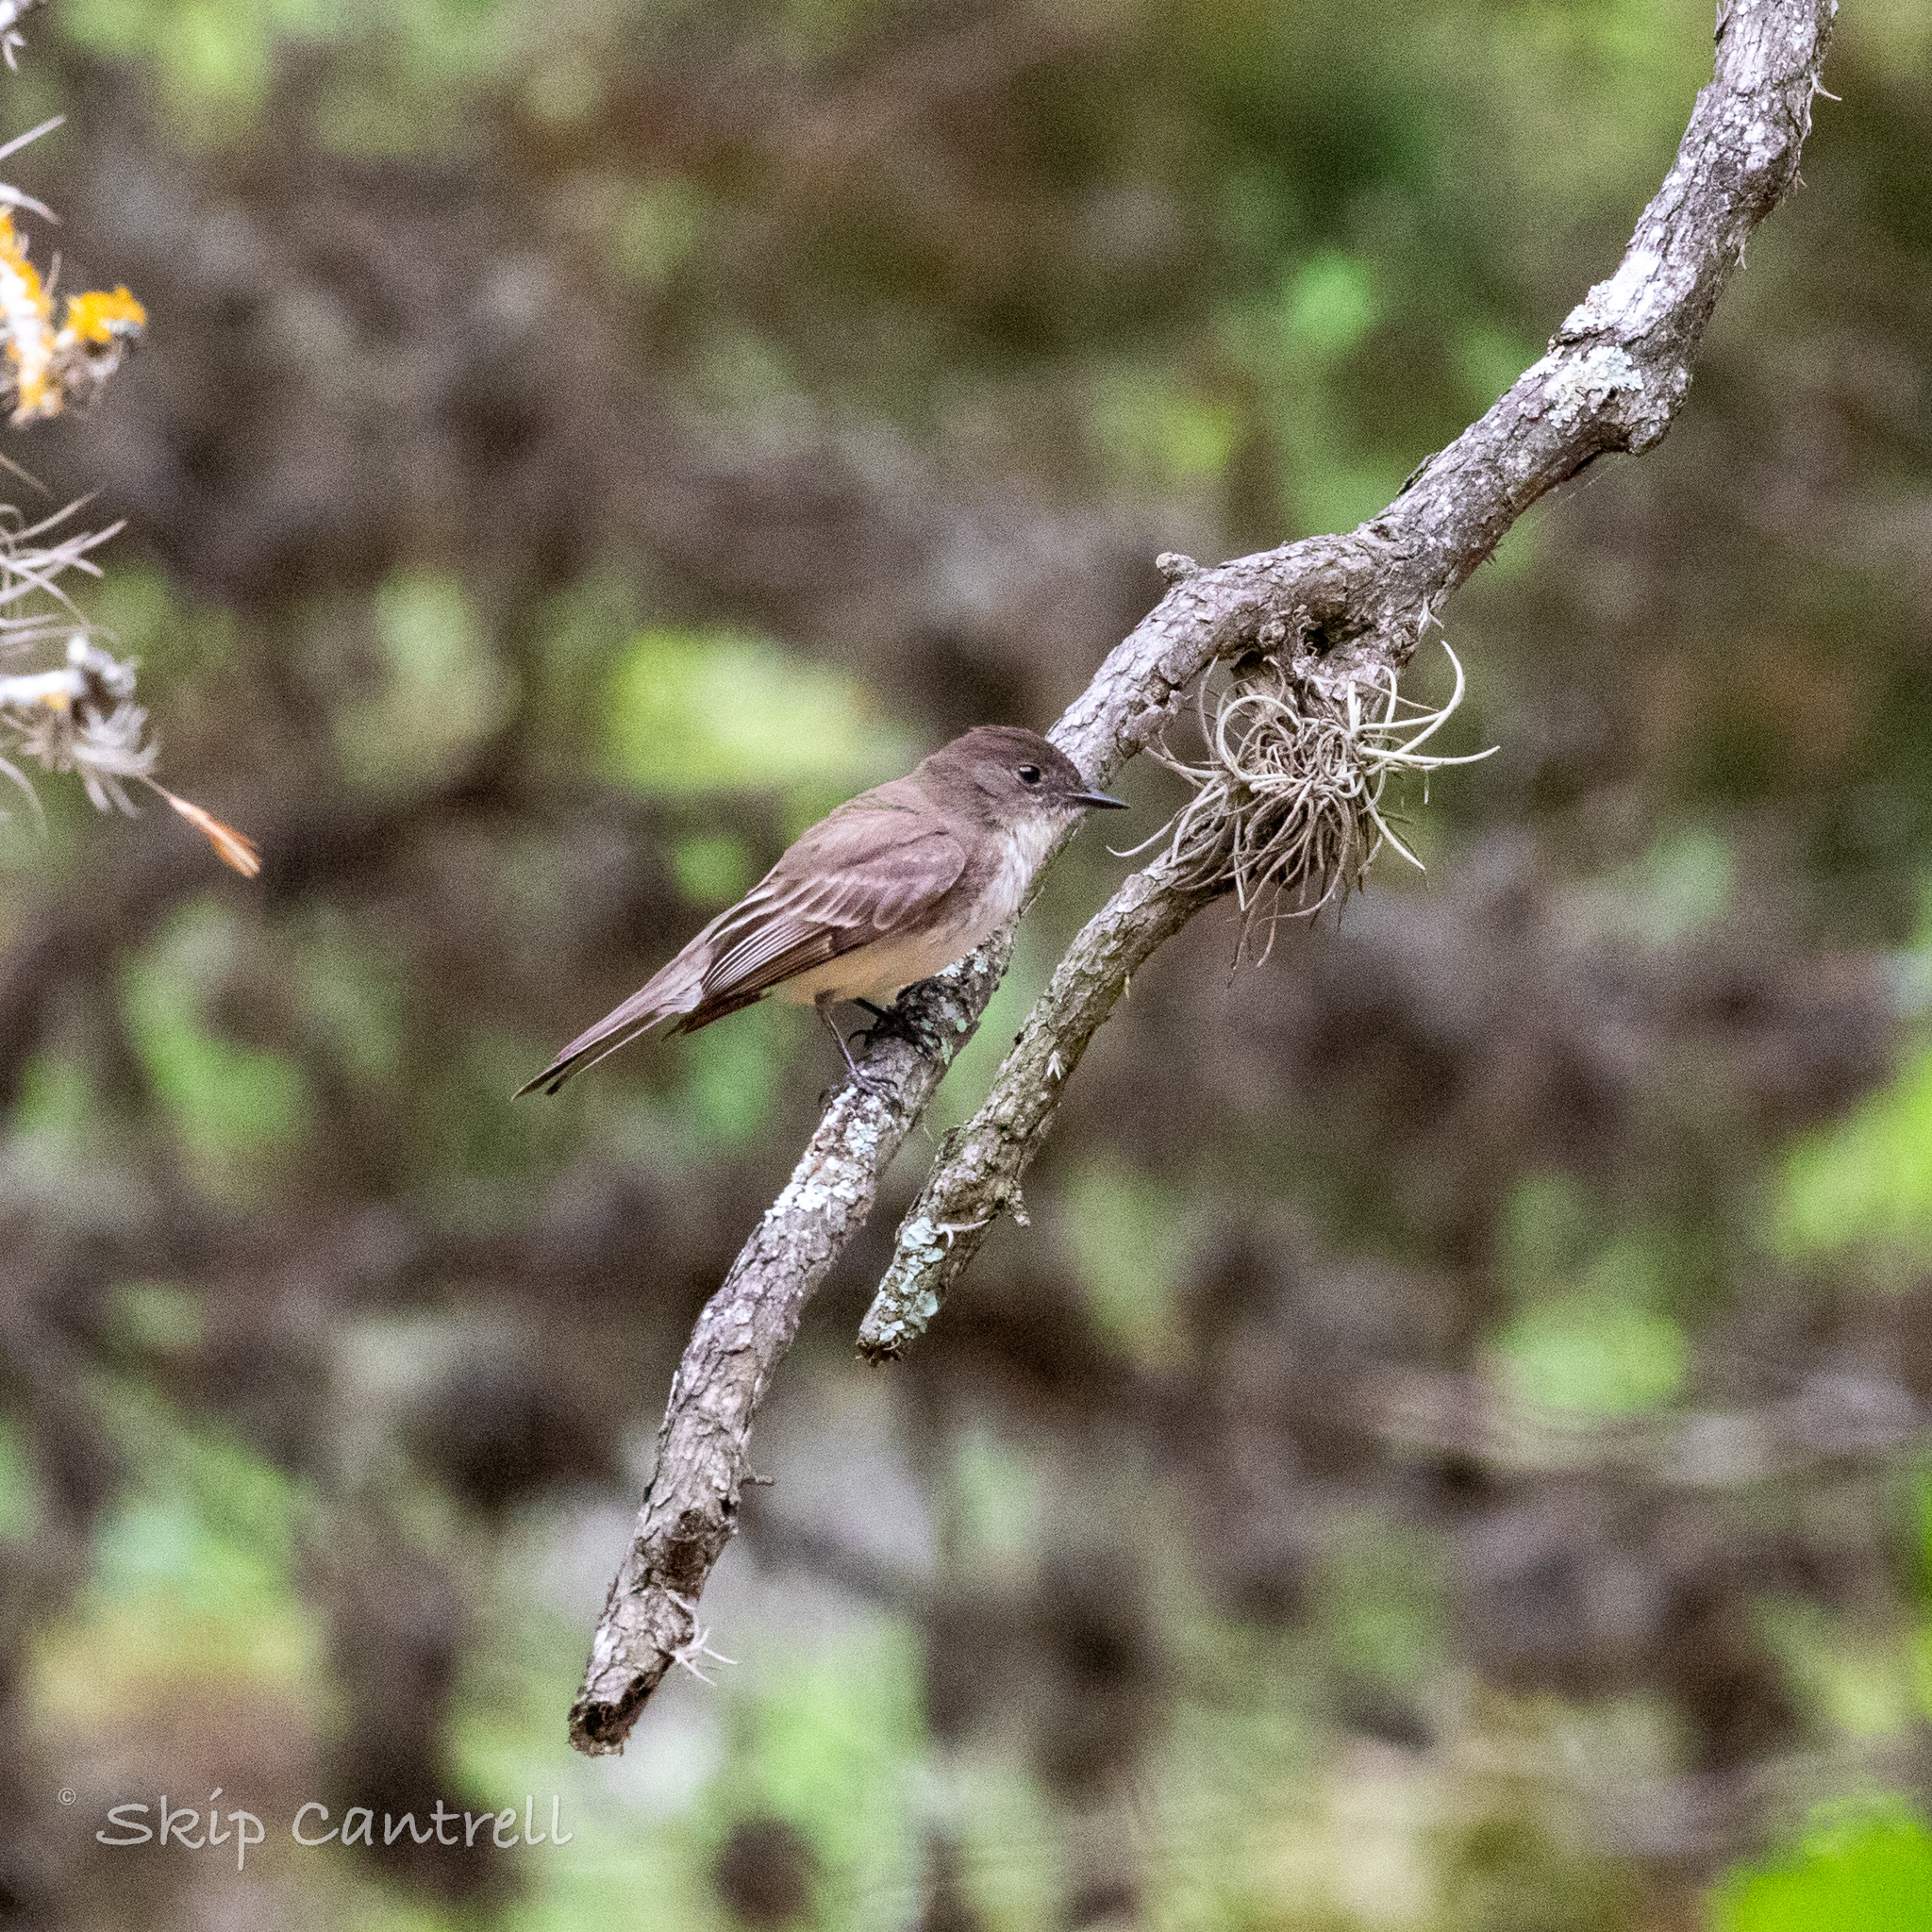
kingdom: Animalia
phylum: Chordata
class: Aves
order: Passeriformes
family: Tyrannidae
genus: Sayornis
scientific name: Sayornis phoebe
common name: Eastern phoebe
